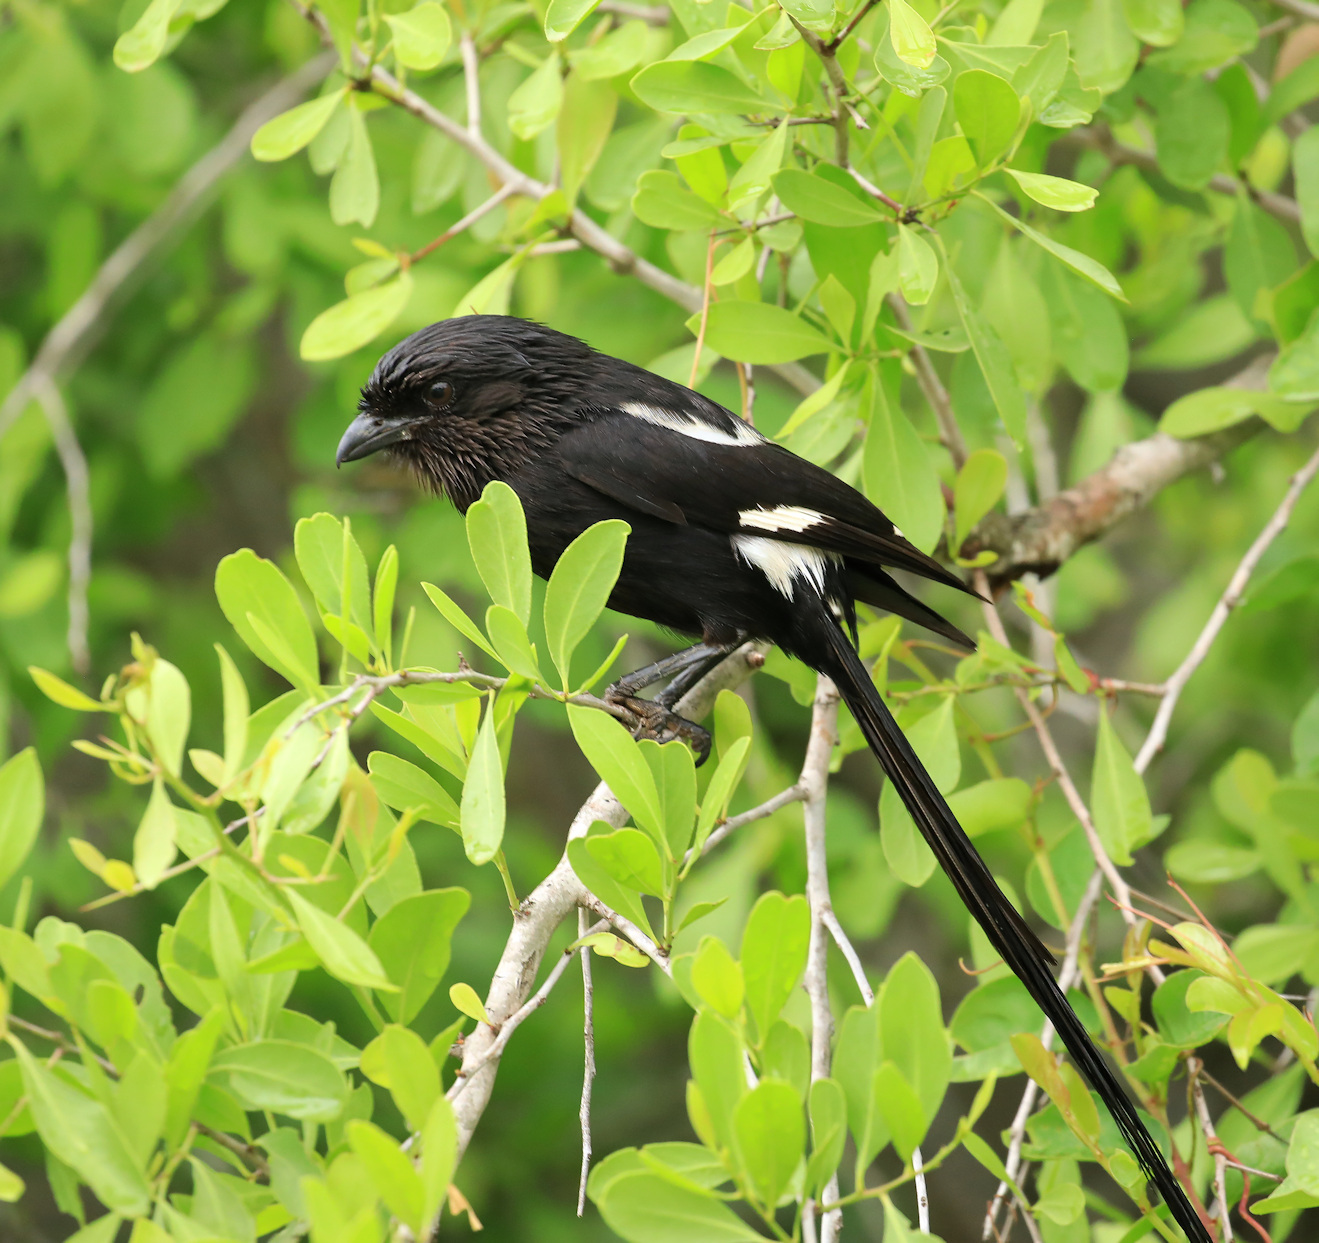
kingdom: Animalia
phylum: Chordata
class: Aves
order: Passeriformes
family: Laniidae
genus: Urolestes
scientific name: Urolestes melanoleucus
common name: Magpie shrike
